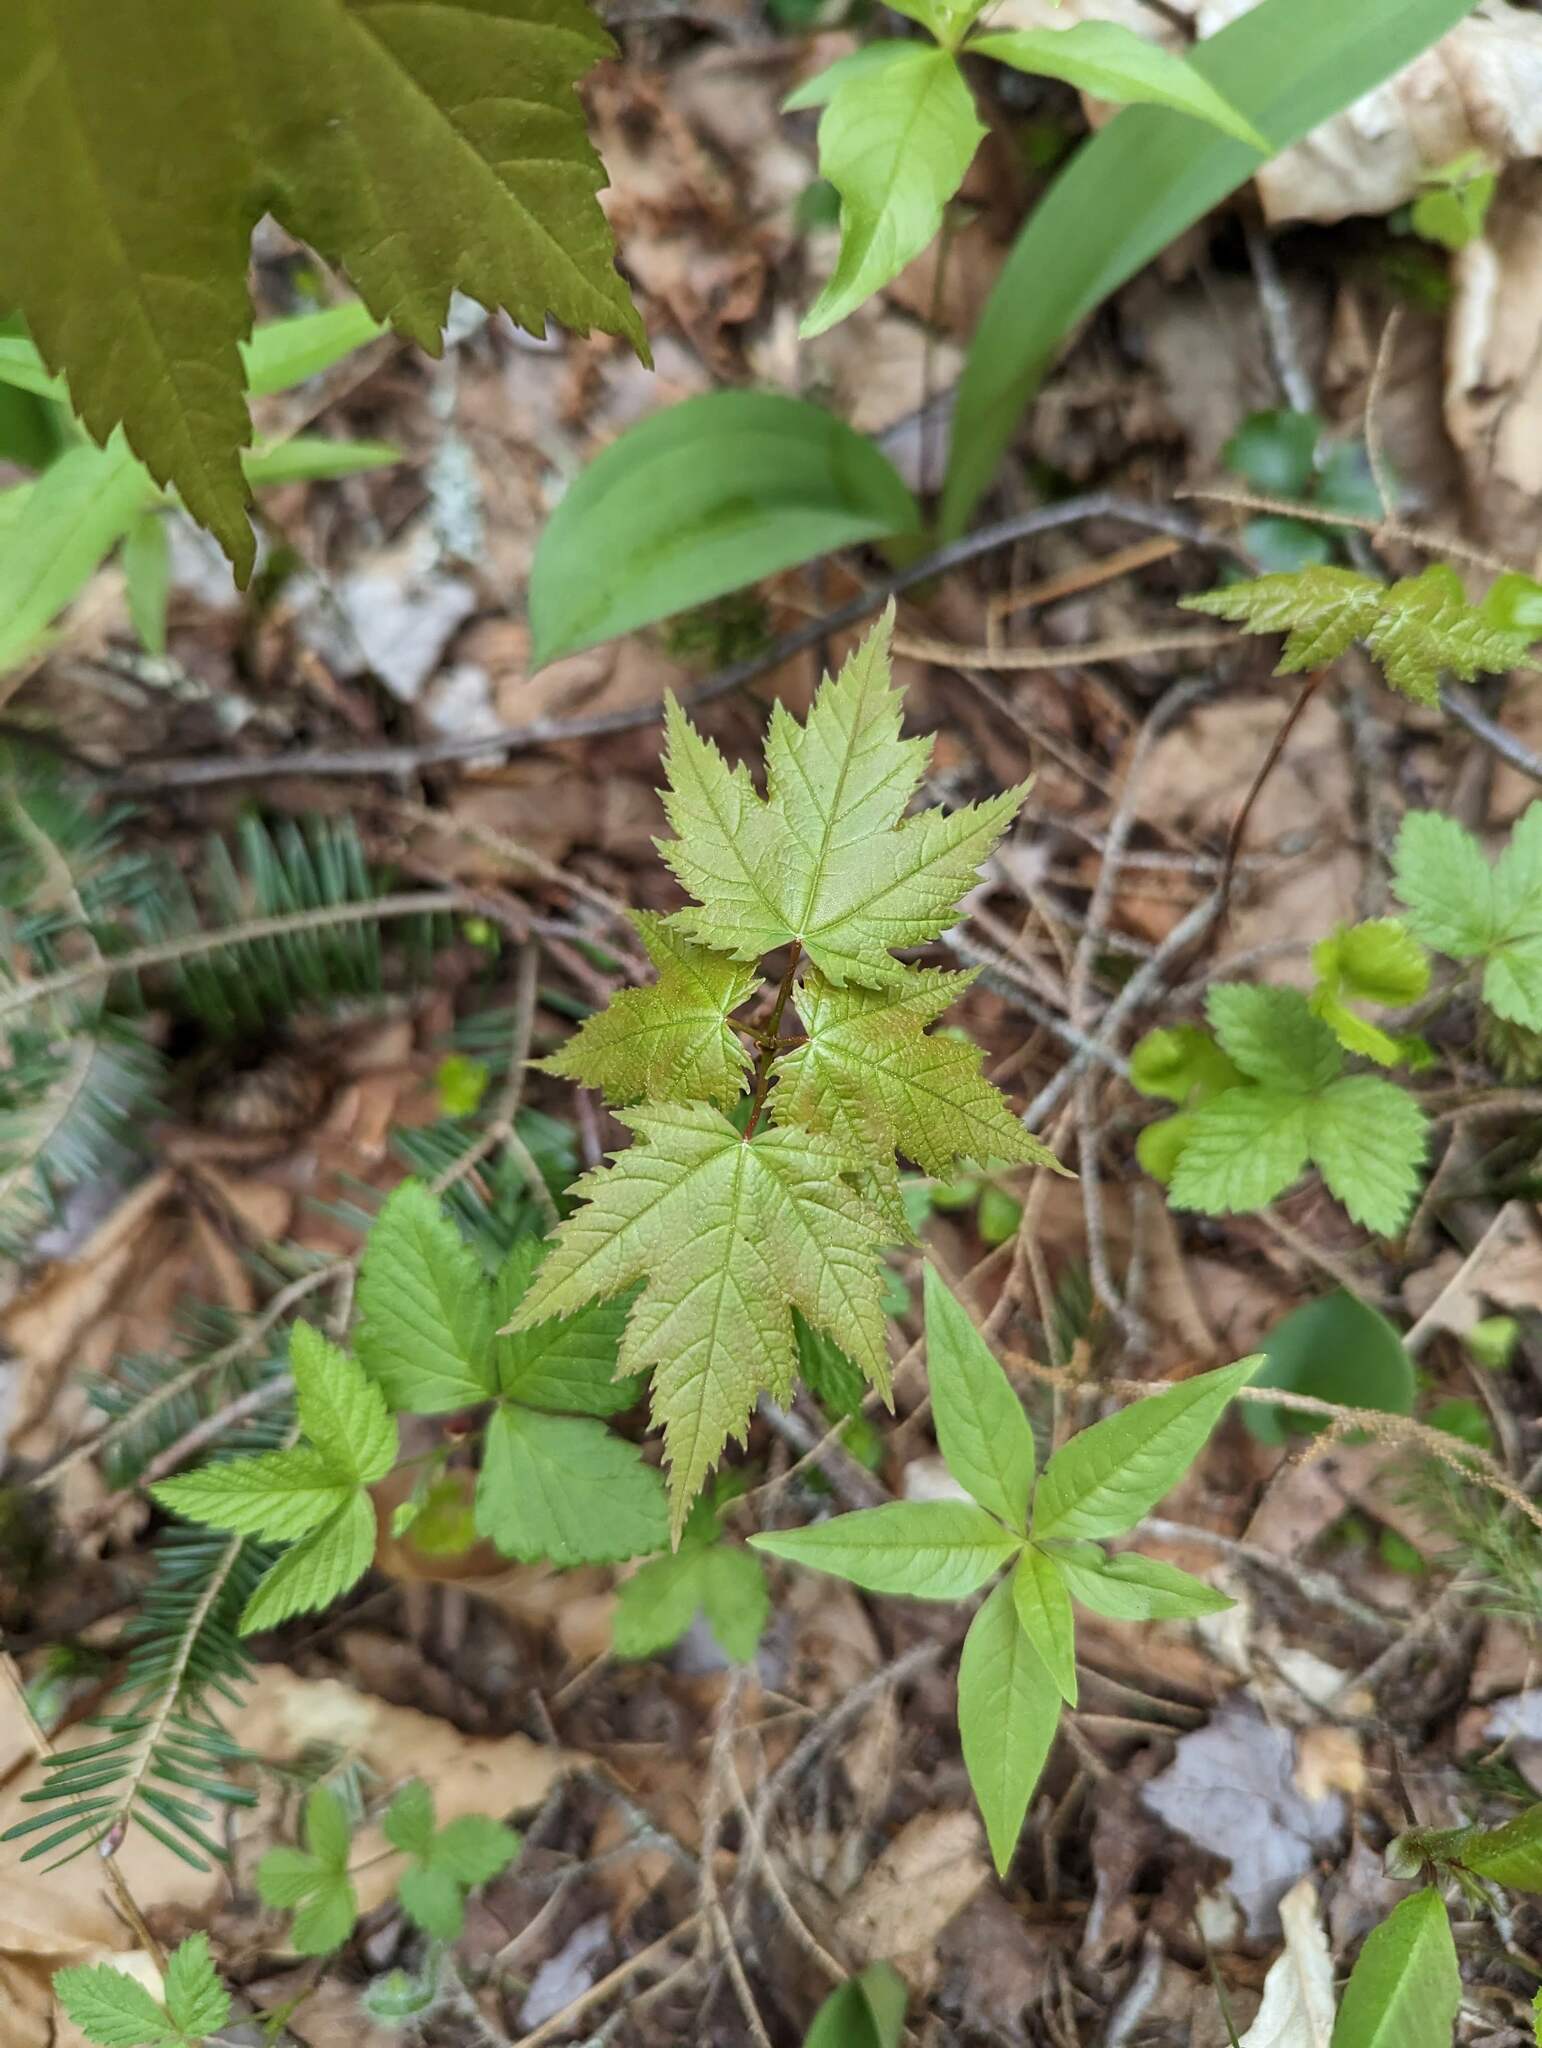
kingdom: Plantae
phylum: Tracheophyta
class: Magnoliopsida
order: Sapindales
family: Sapindaceae
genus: Acer
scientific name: Acer rubrum
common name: Red maple
